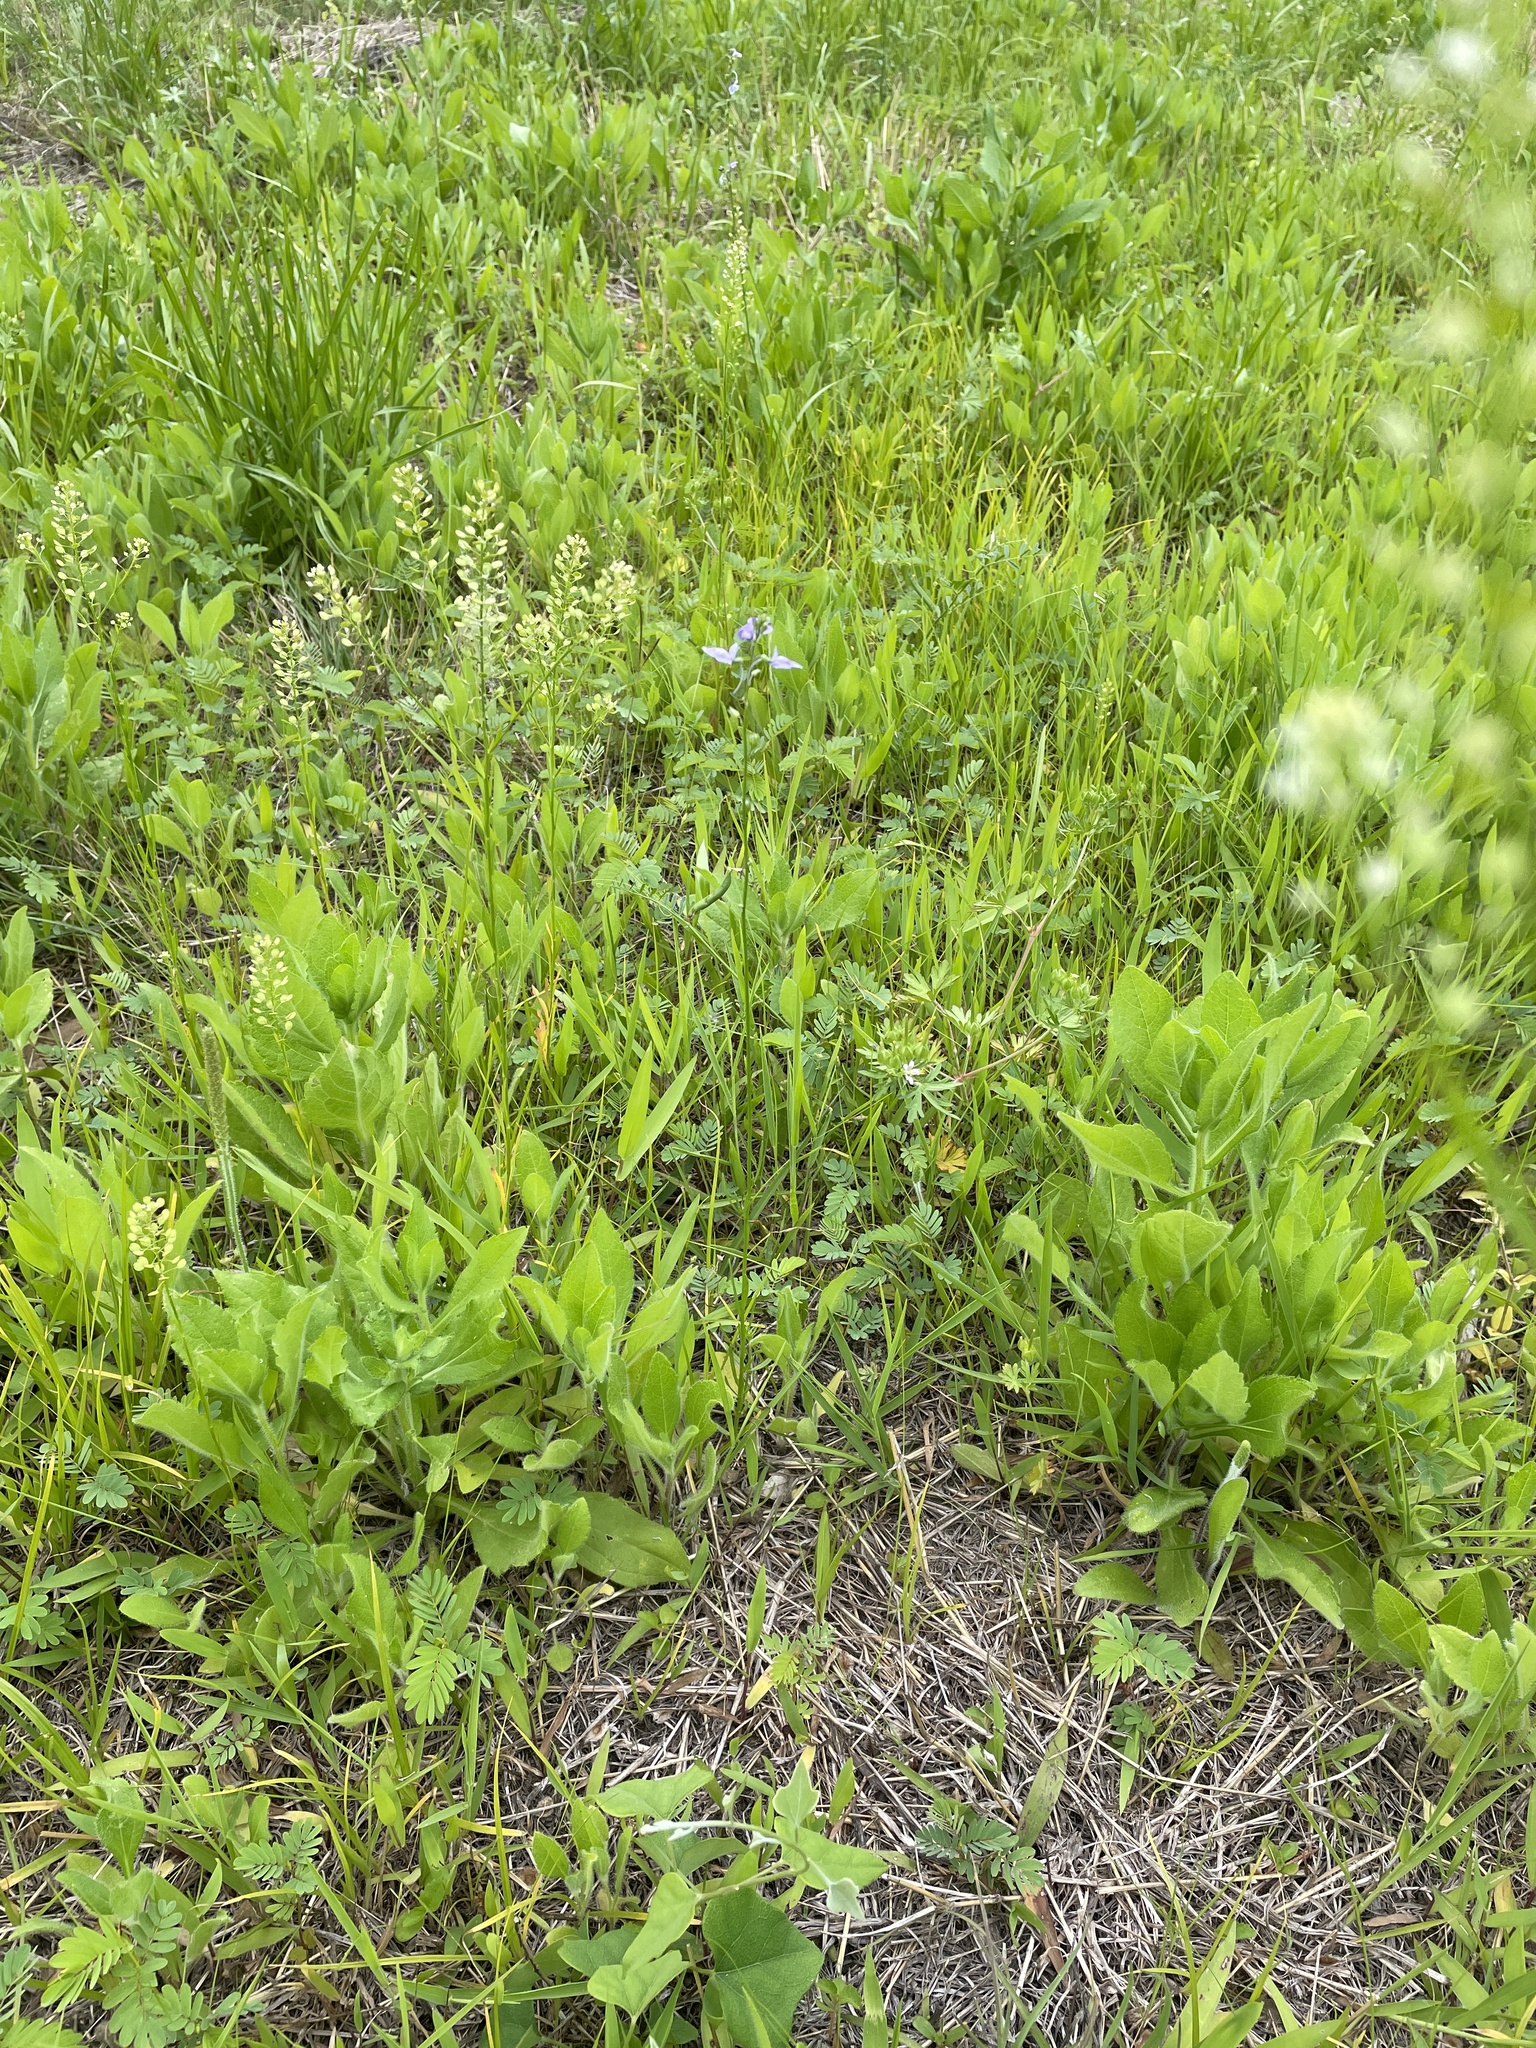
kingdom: Plantae
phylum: Tracheophyta
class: Magnoliopsida
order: Lamiales
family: Plantaginaceae
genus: Nuttallanthus
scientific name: Nuttallanthus texanus
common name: Texas toadflax
